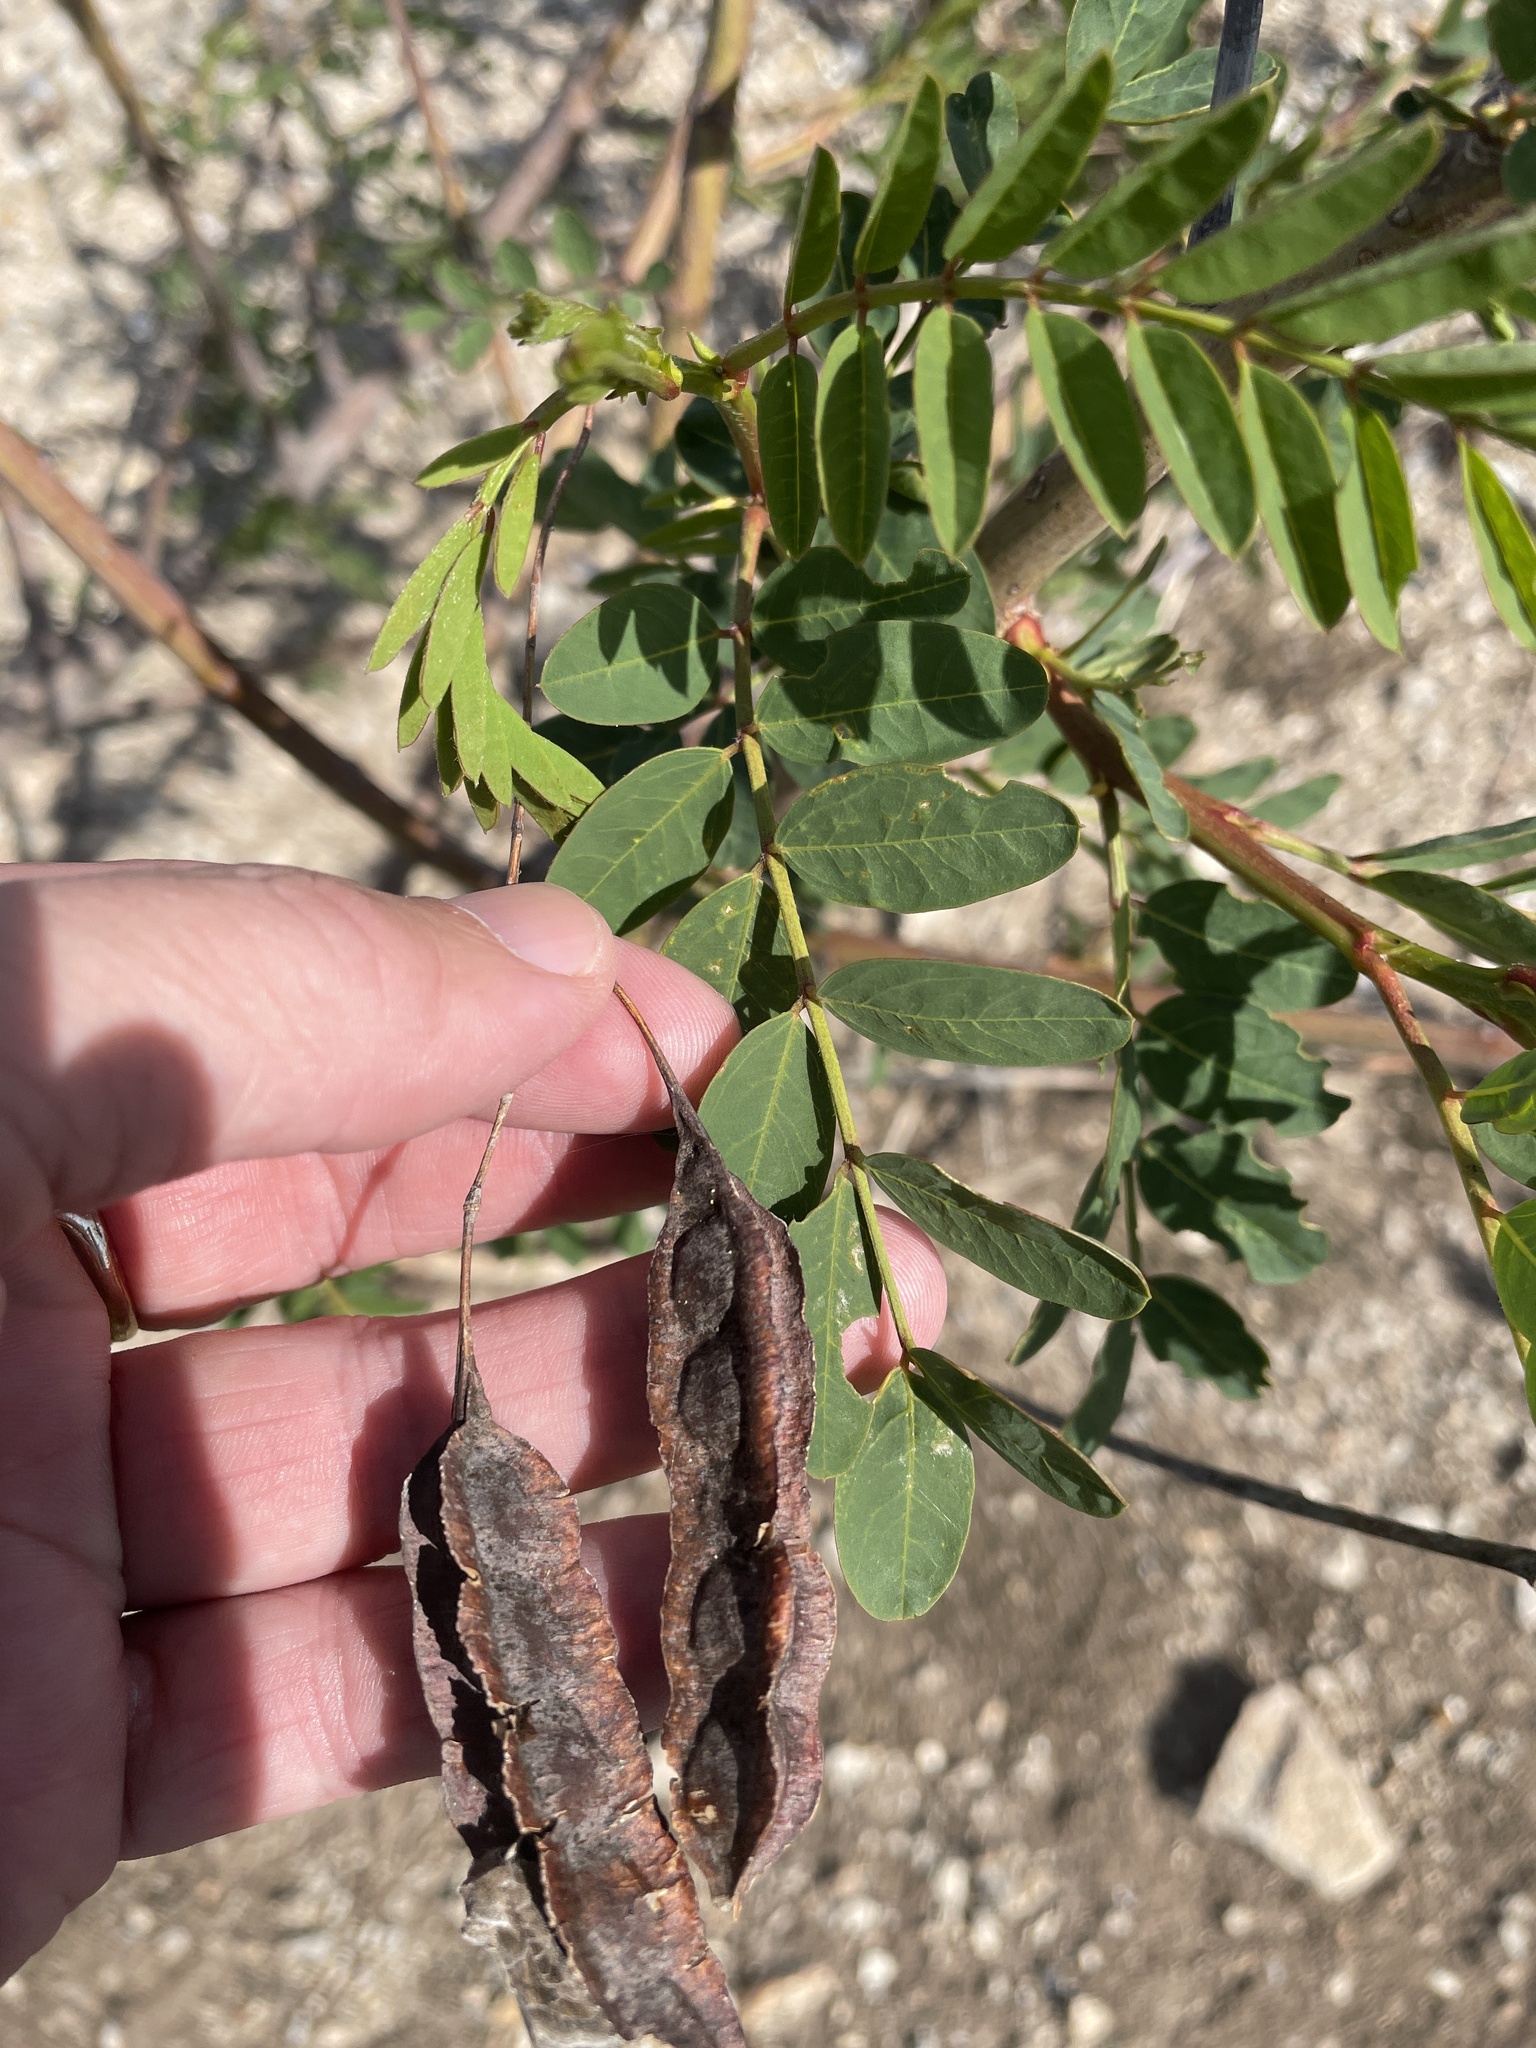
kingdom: Plantae
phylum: Tracheophyta
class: Magnoliopsida
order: Fabales
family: Fabaceae
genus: Sesbania
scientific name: Sesbania drummondii
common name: Poison-bean
